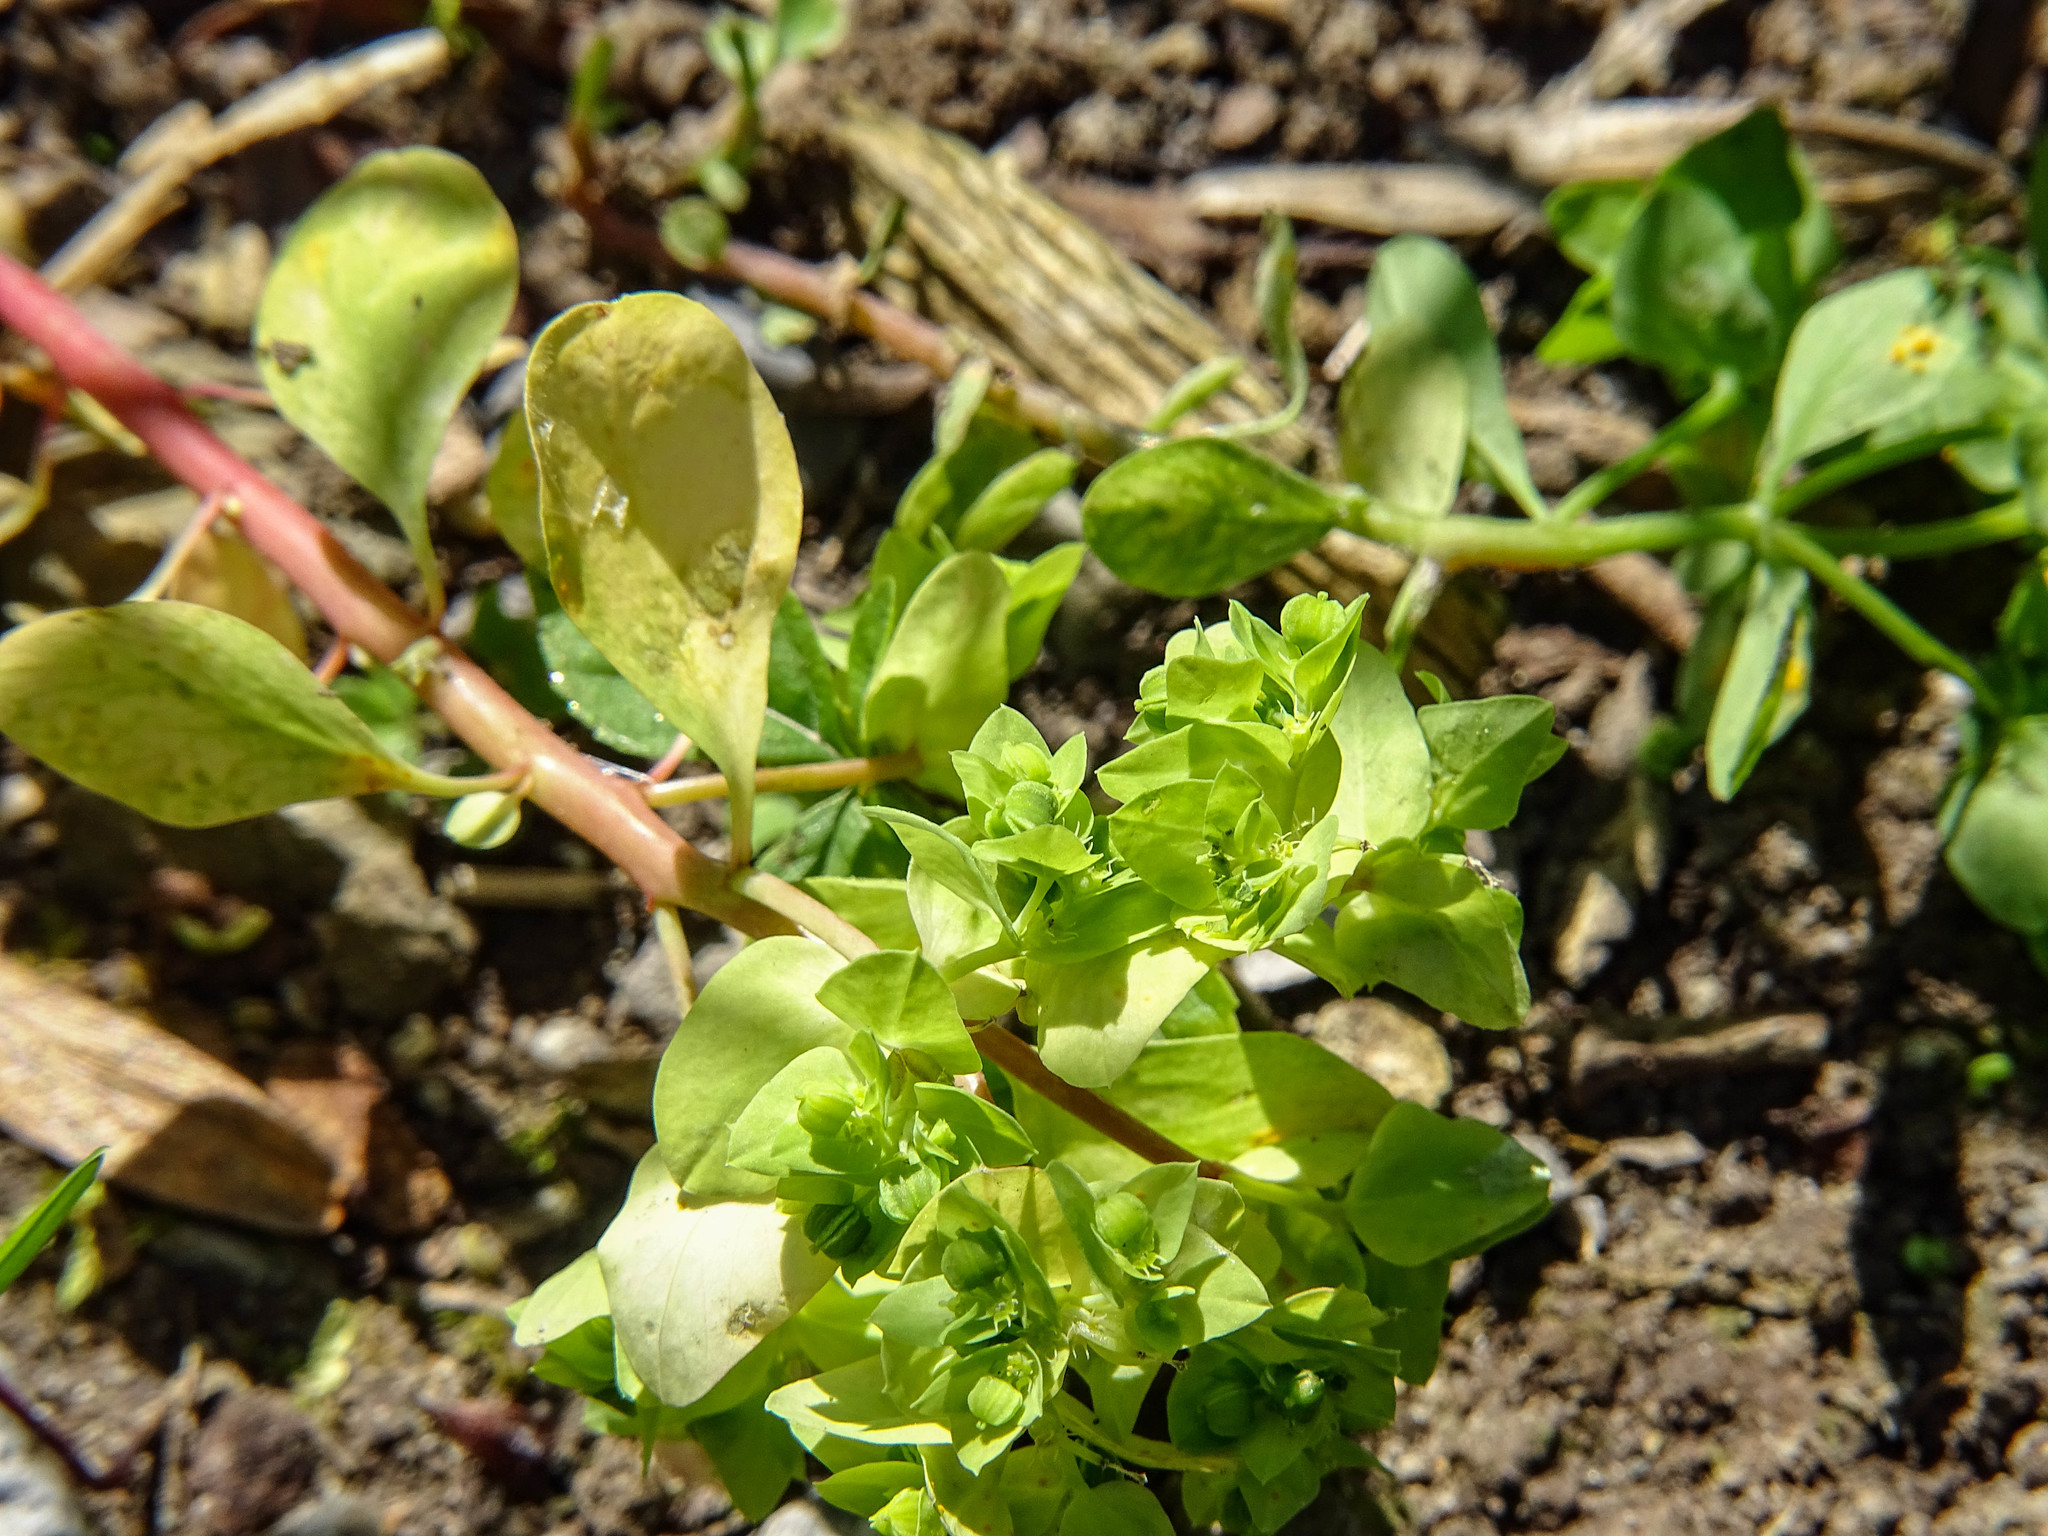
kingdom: Plantae
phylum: Tracheophyta
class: Magnoliopsida
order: Malpighiales
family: Euphorbiaceae
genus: Euphorbia
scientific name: Euphorbia peplus
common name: Petty spurge
